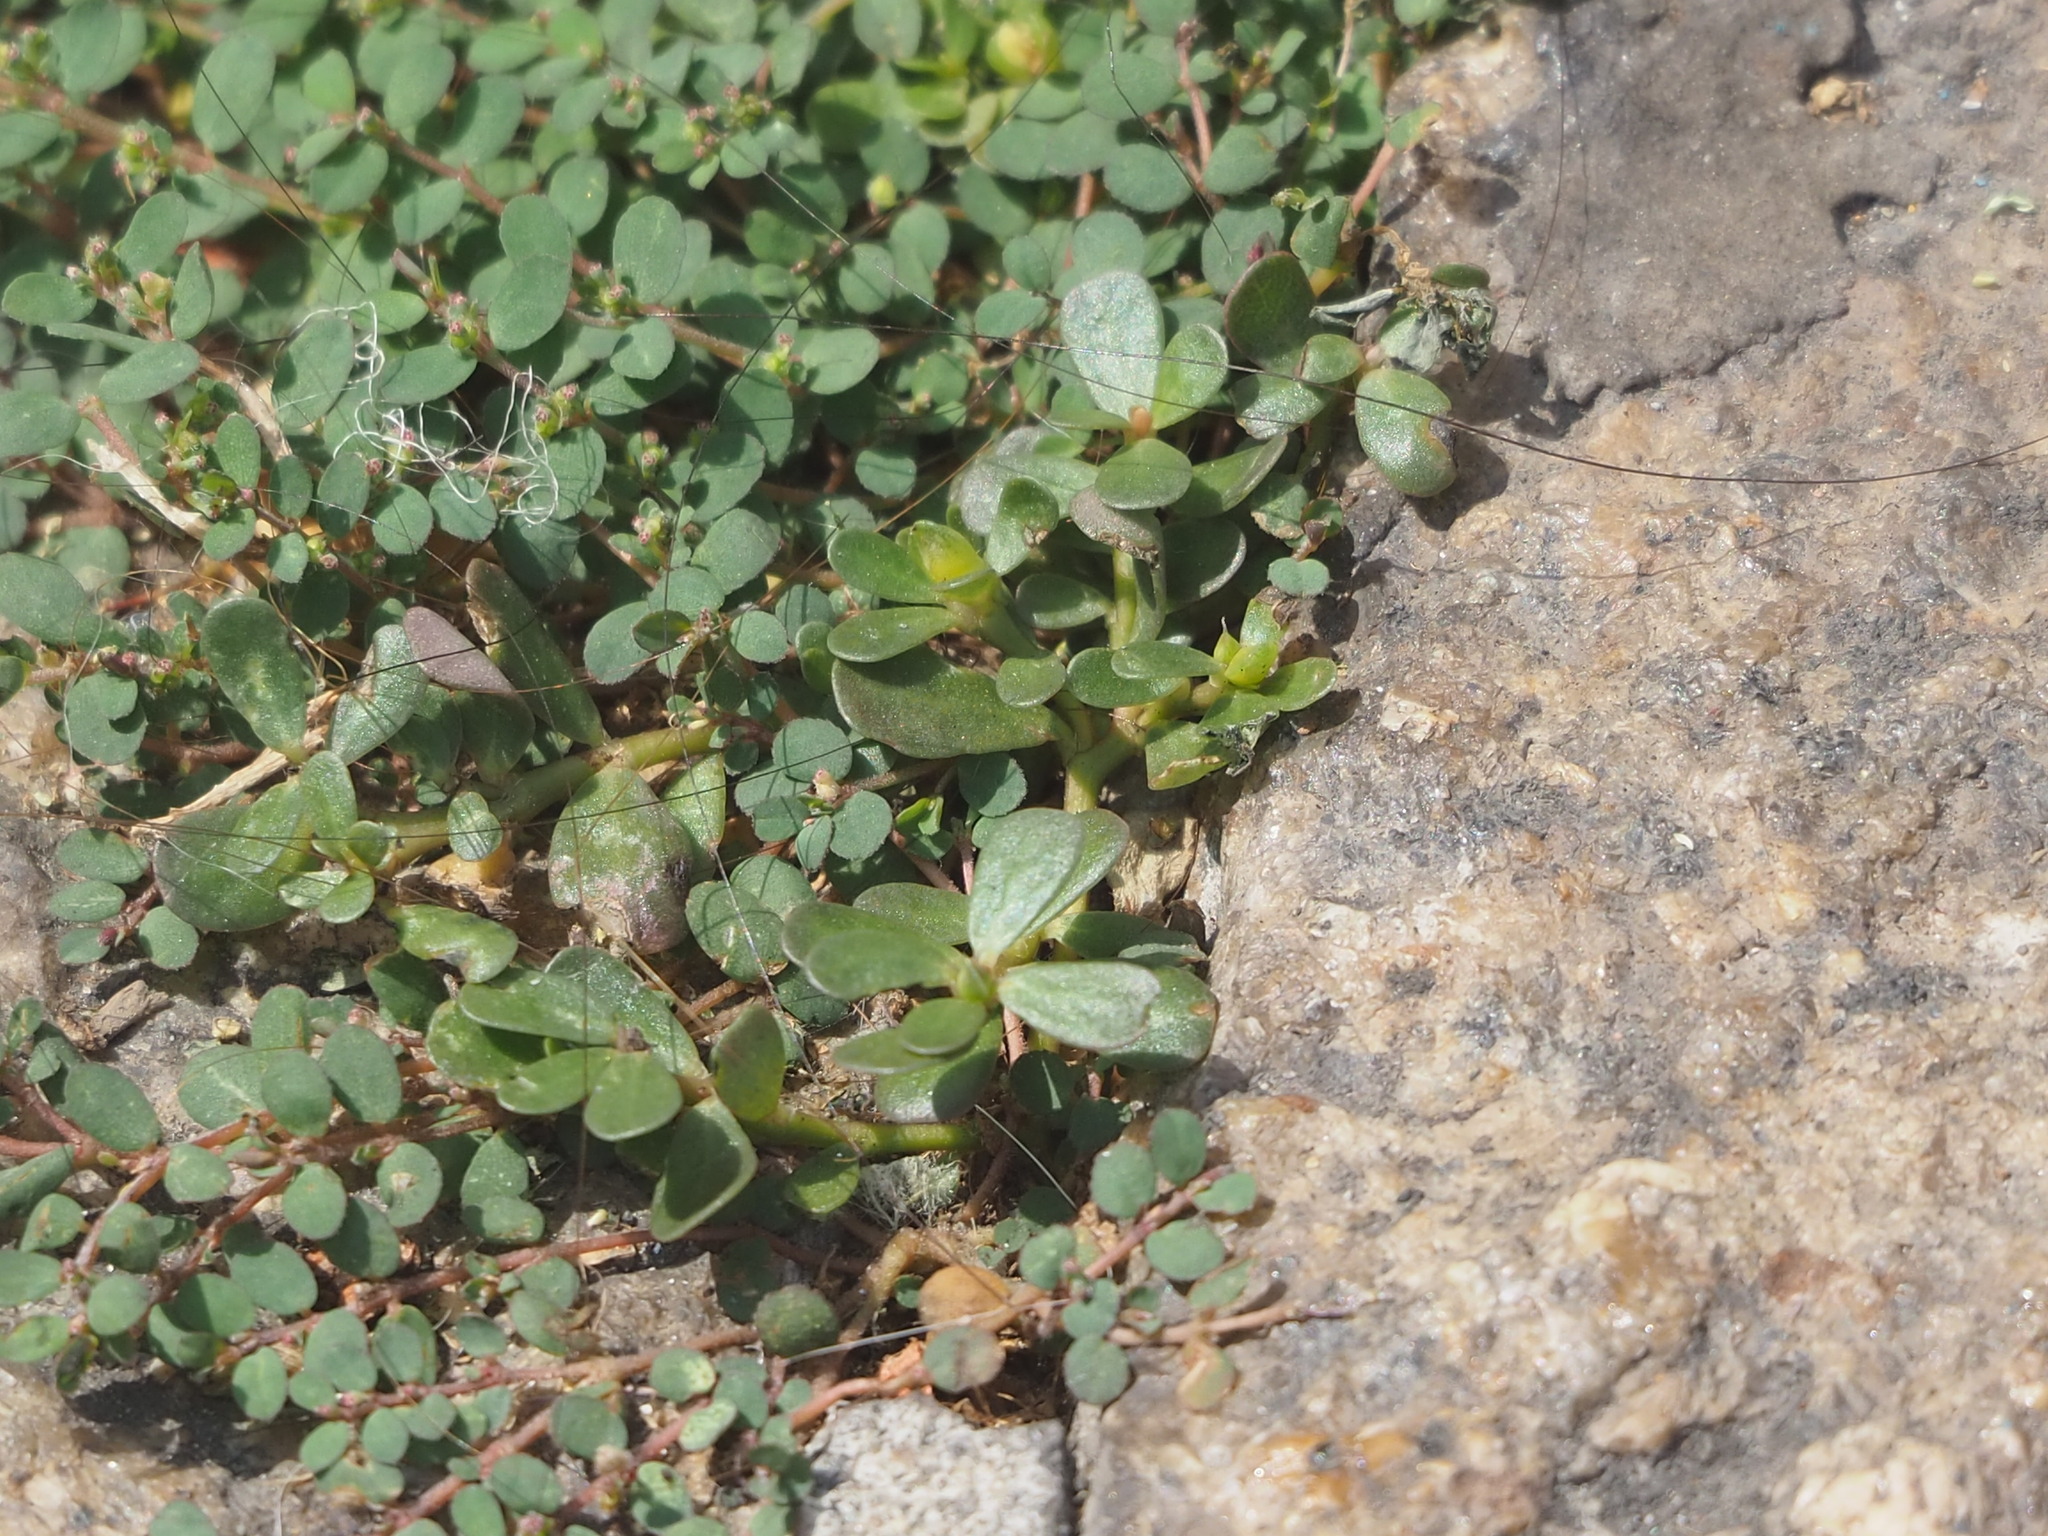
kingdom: Plantae
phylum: Tracheophyta
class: Magnoliopsida
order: Caryophyllales
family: Portulacaceae
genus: Portulaca
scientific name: Portulaca oleracea
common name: Common purslane
